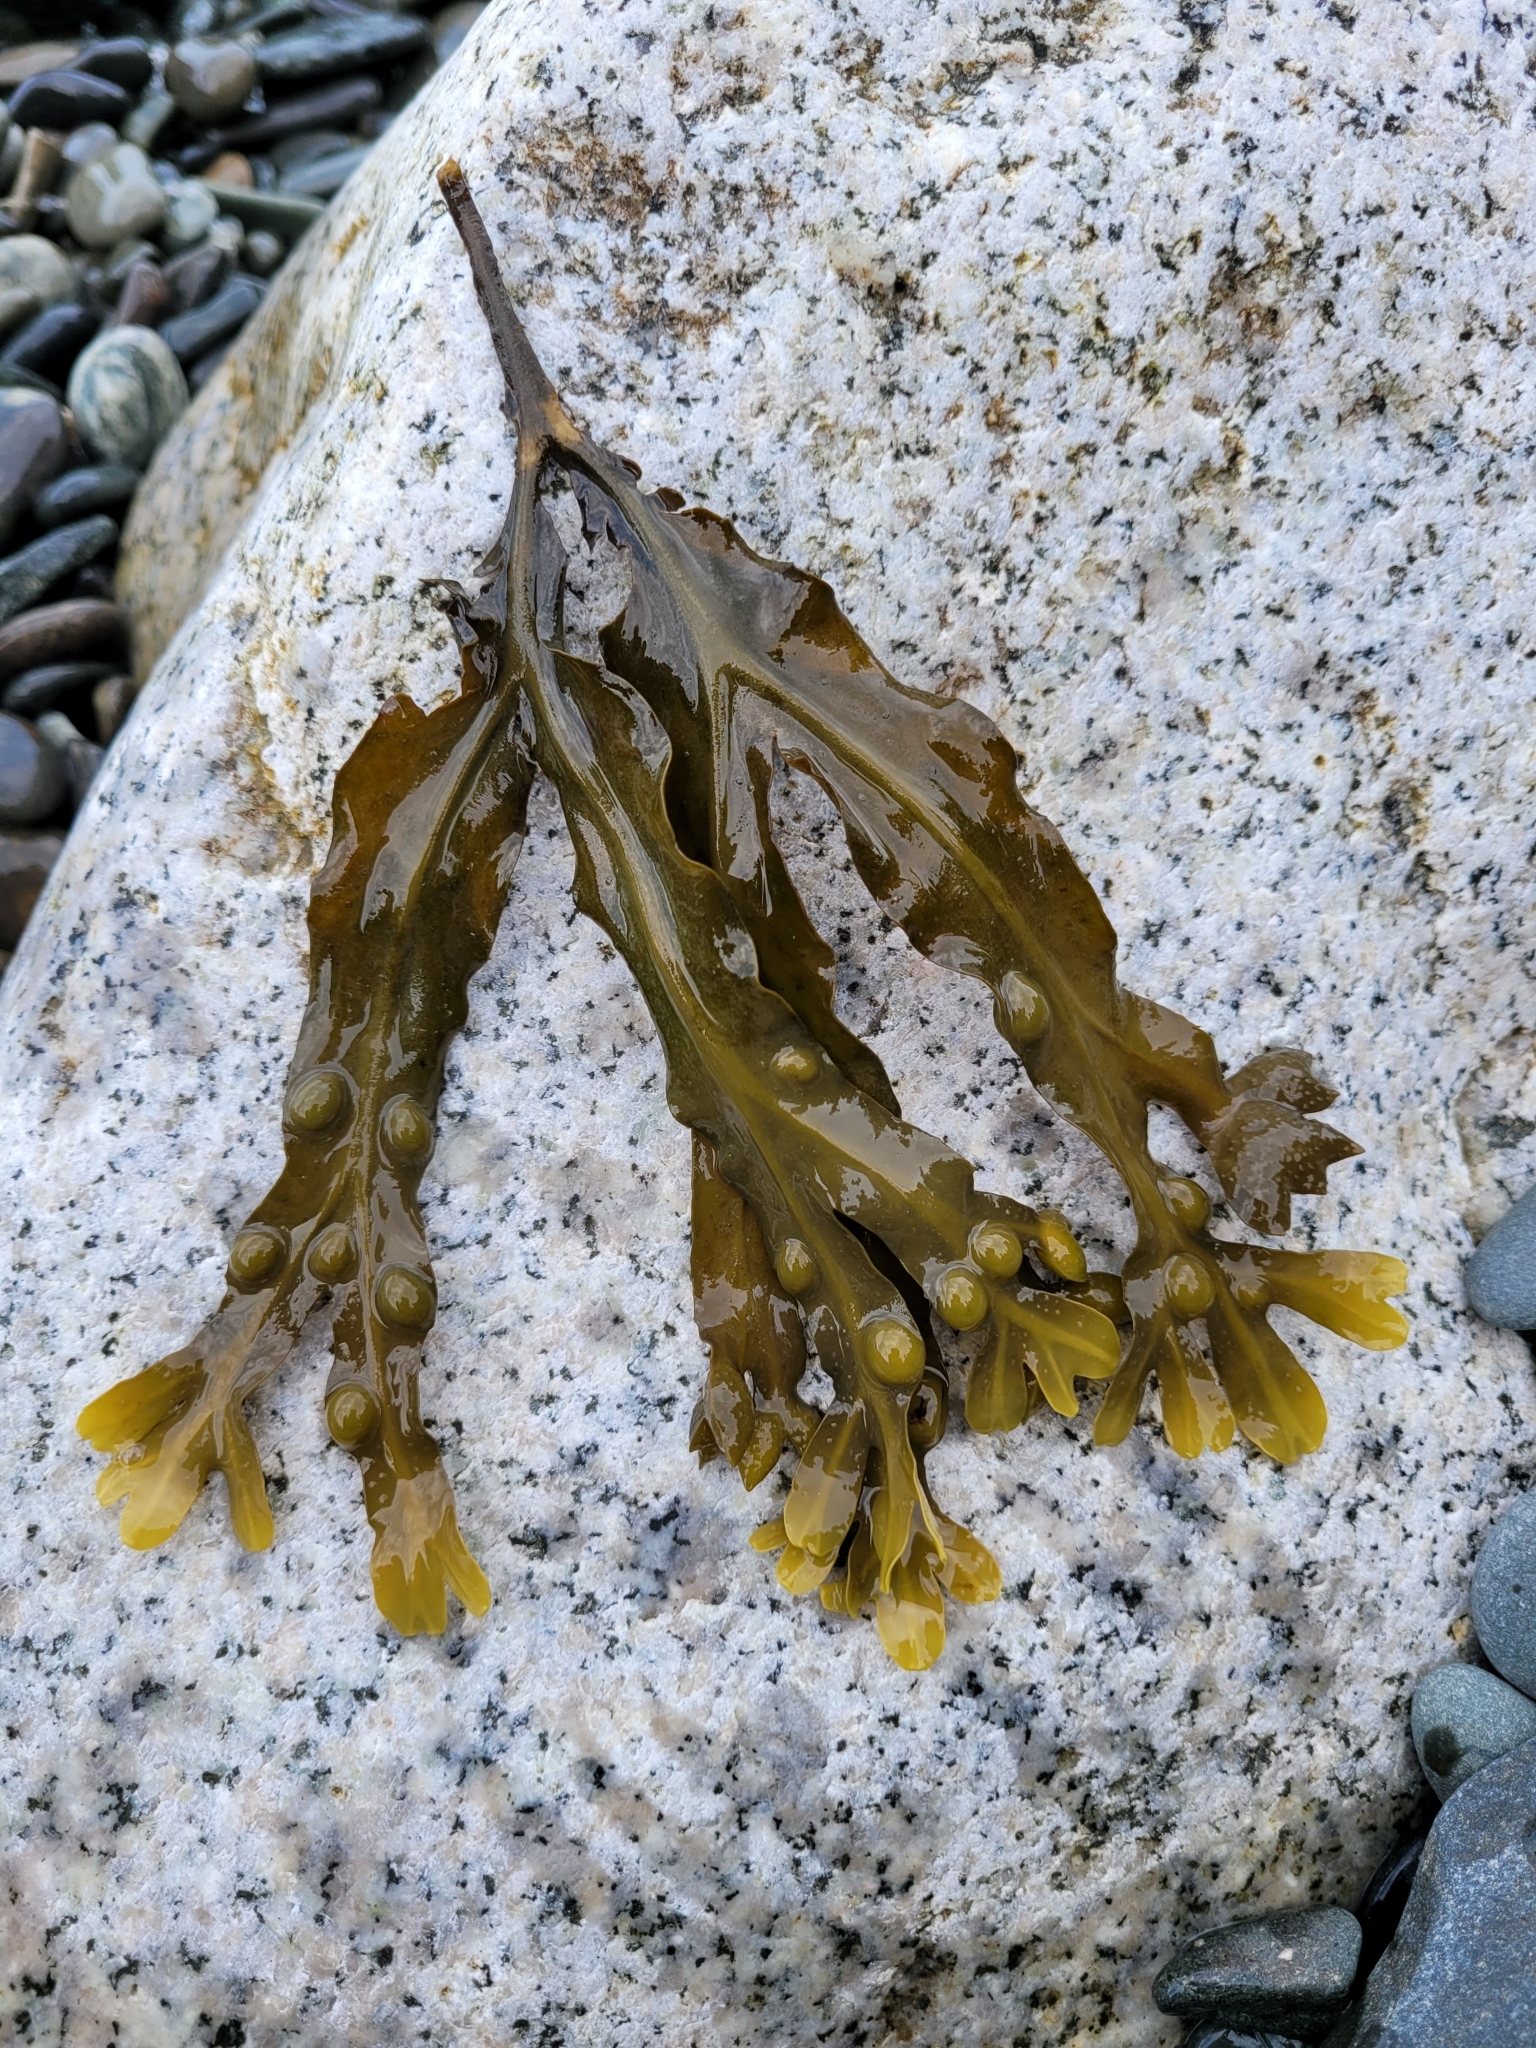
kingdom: Chromista
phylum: Ochrophyta
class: Phaeophyceae
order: Fucales
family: Fucaceae
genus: Fucus
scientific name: Fucus vesiculosus
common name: Bladder wrack
